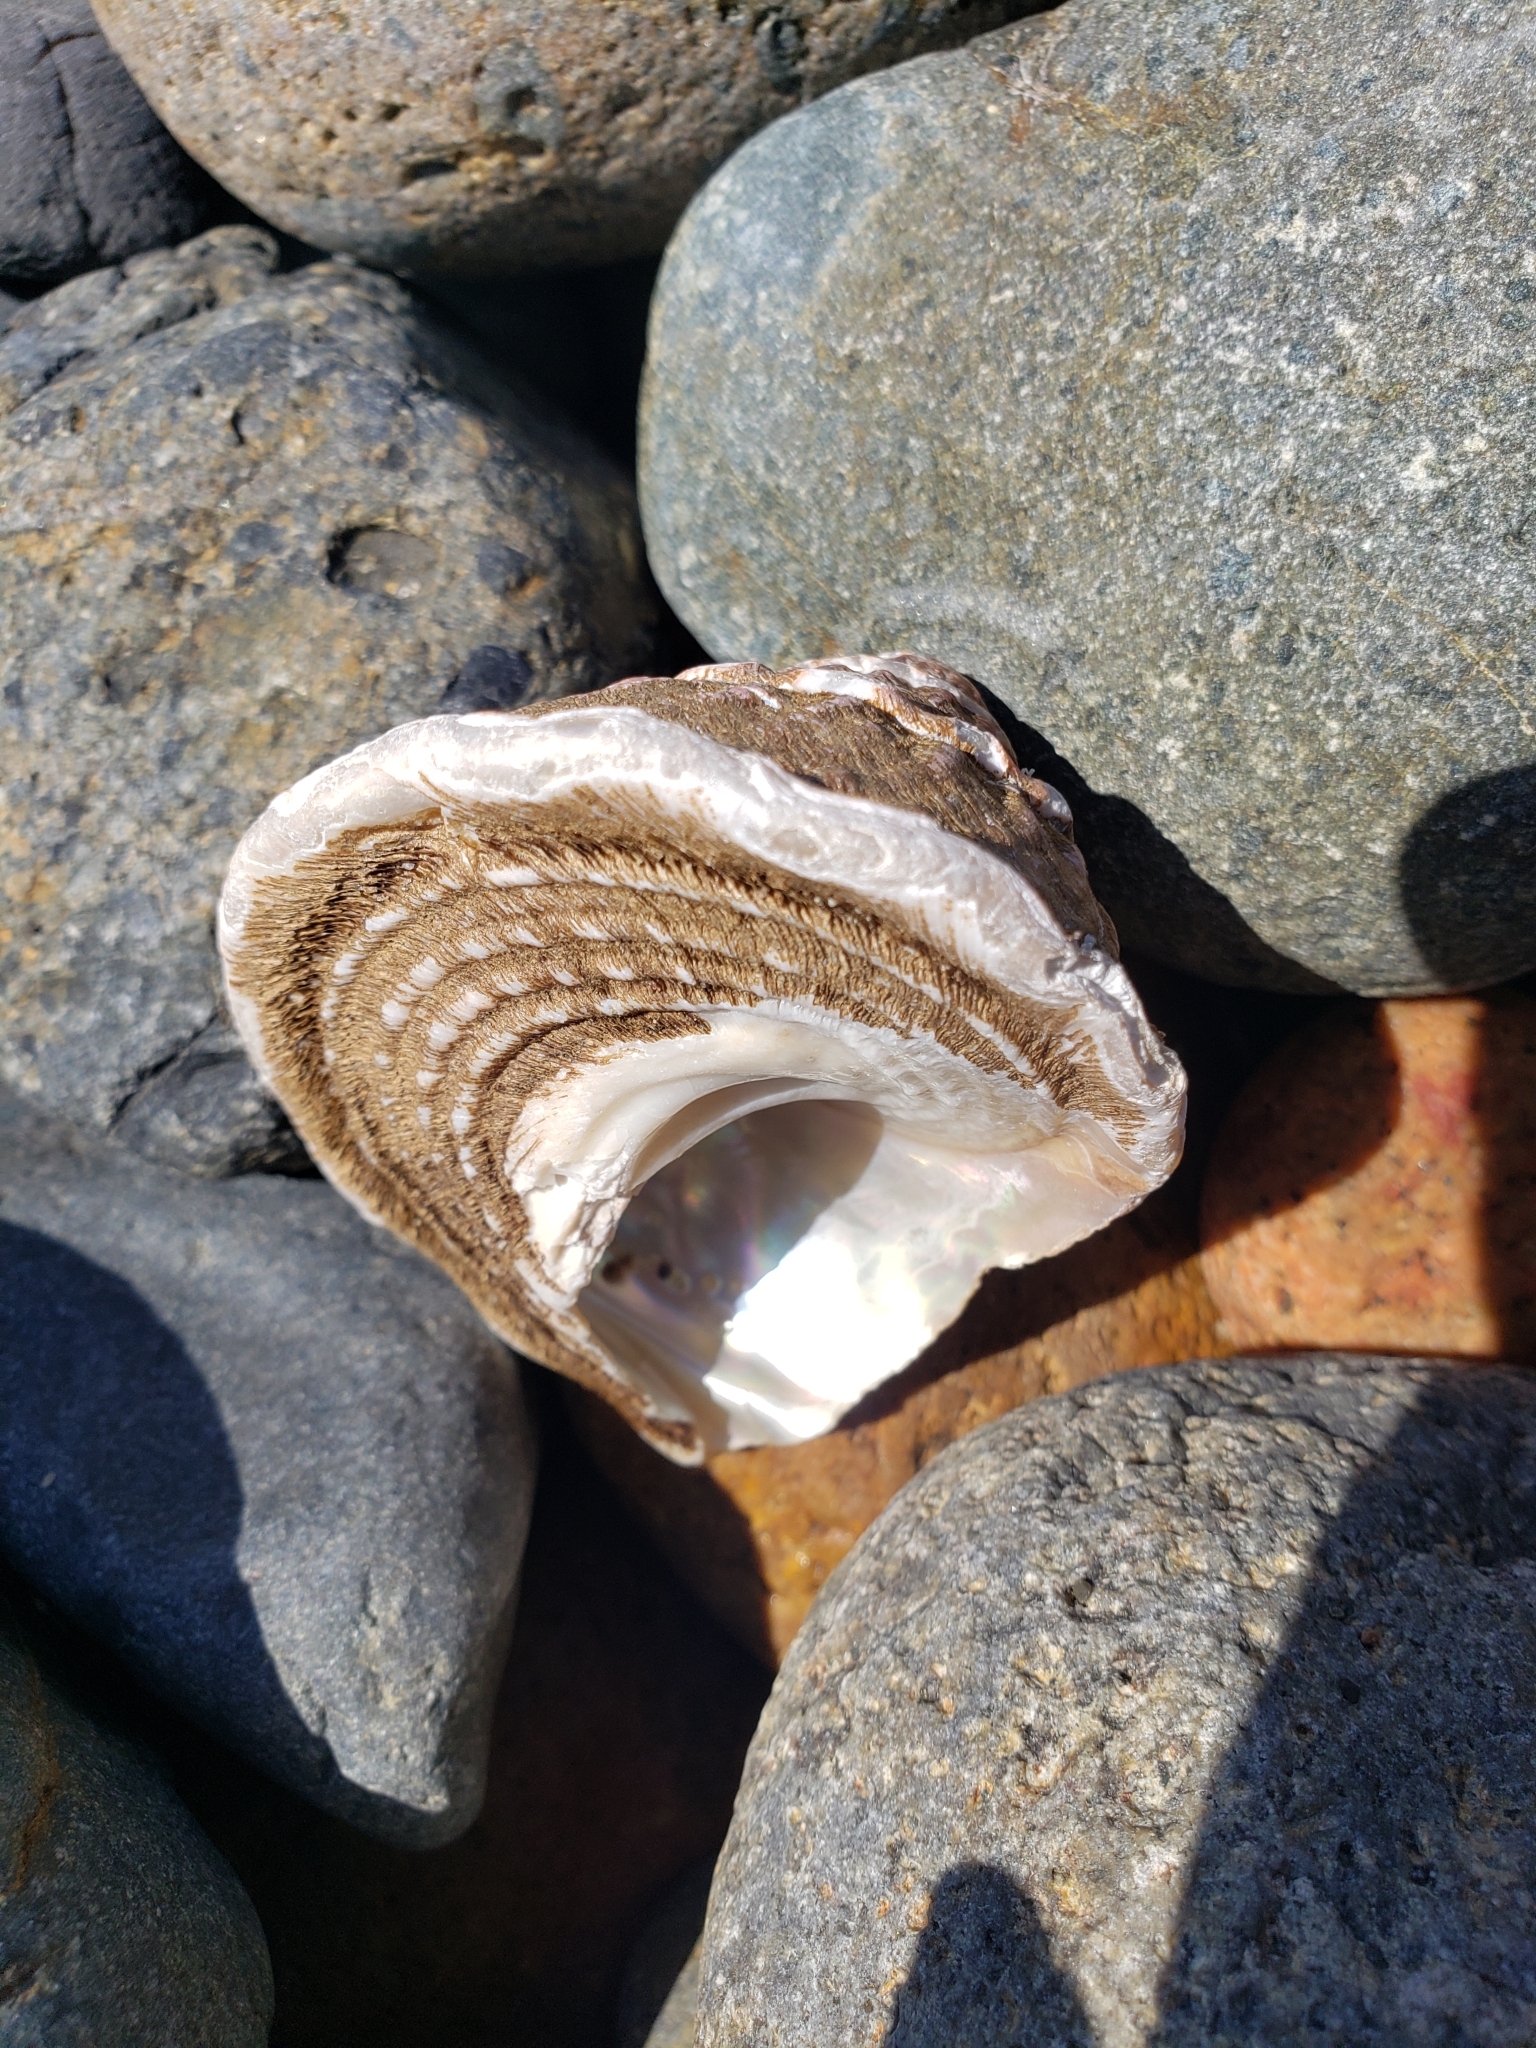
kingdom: Animalia
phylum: Mollusca
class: Gastropoda
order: Trochida
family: Turbinidae
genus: Megastraea
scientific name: Megastraea undosa
